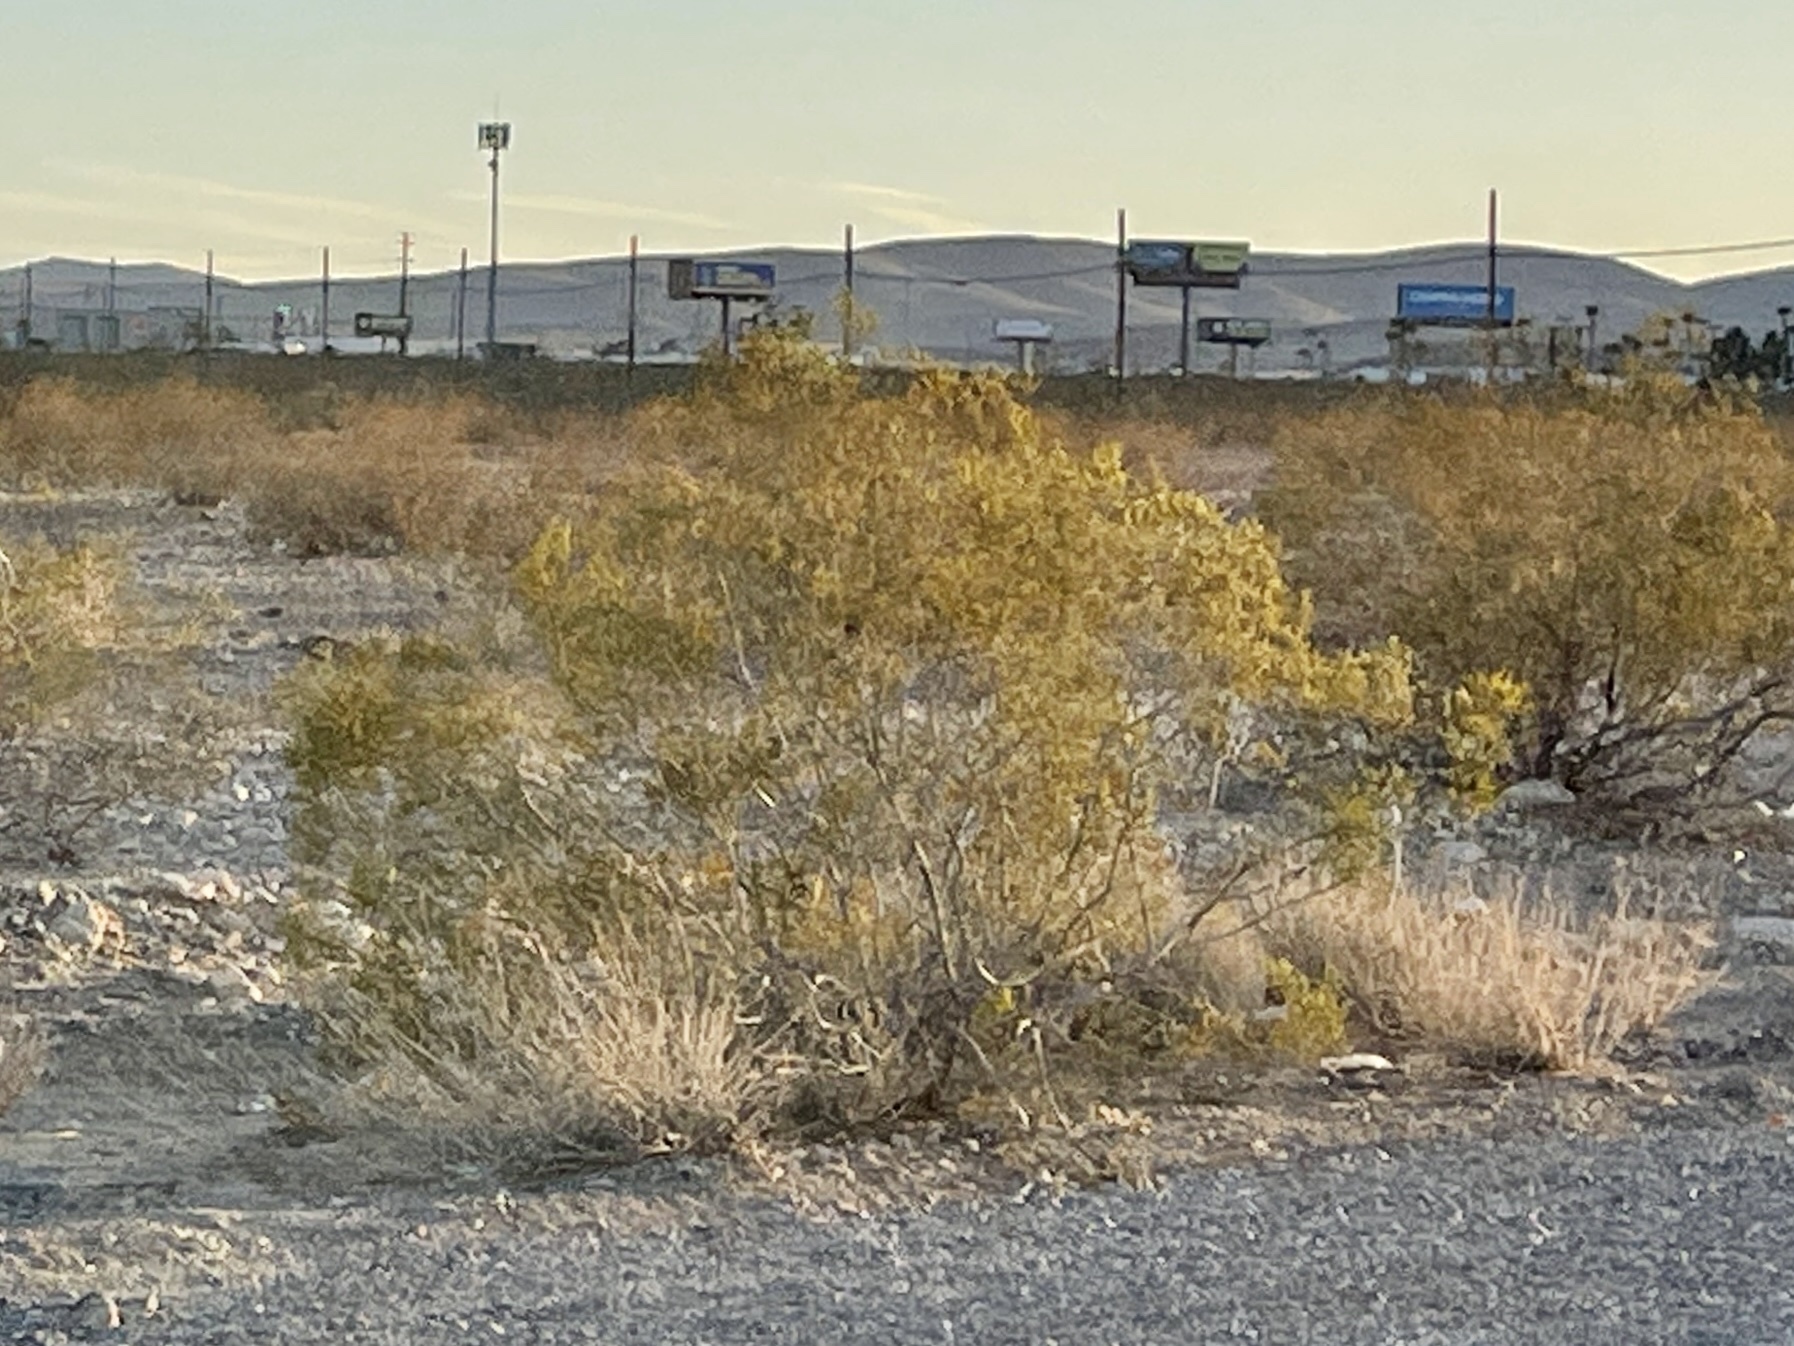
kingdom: Plantae
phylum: Tracheophyta
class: Magnoliopsida
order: Zygophyllales
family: Zygophyllaceae
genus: Larrea
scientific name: Larrea tridentata
